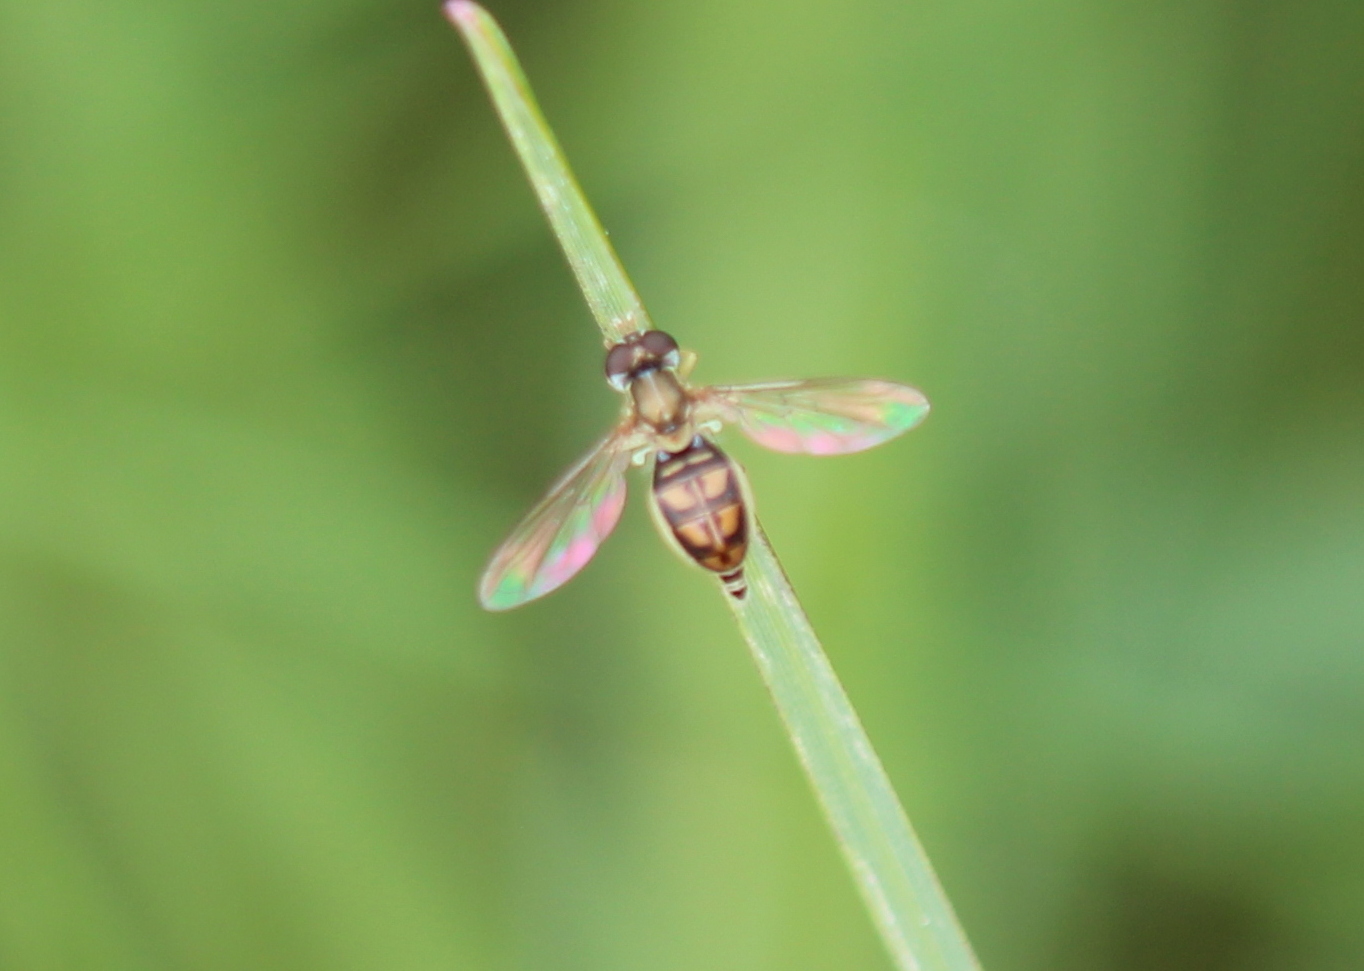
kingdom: Animalia
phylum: Arthropoda
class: Insecta
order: Diptera
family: Syrphidae
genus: Toxomerus
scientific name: Toxomerus marginatus
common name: Syrphid fly
